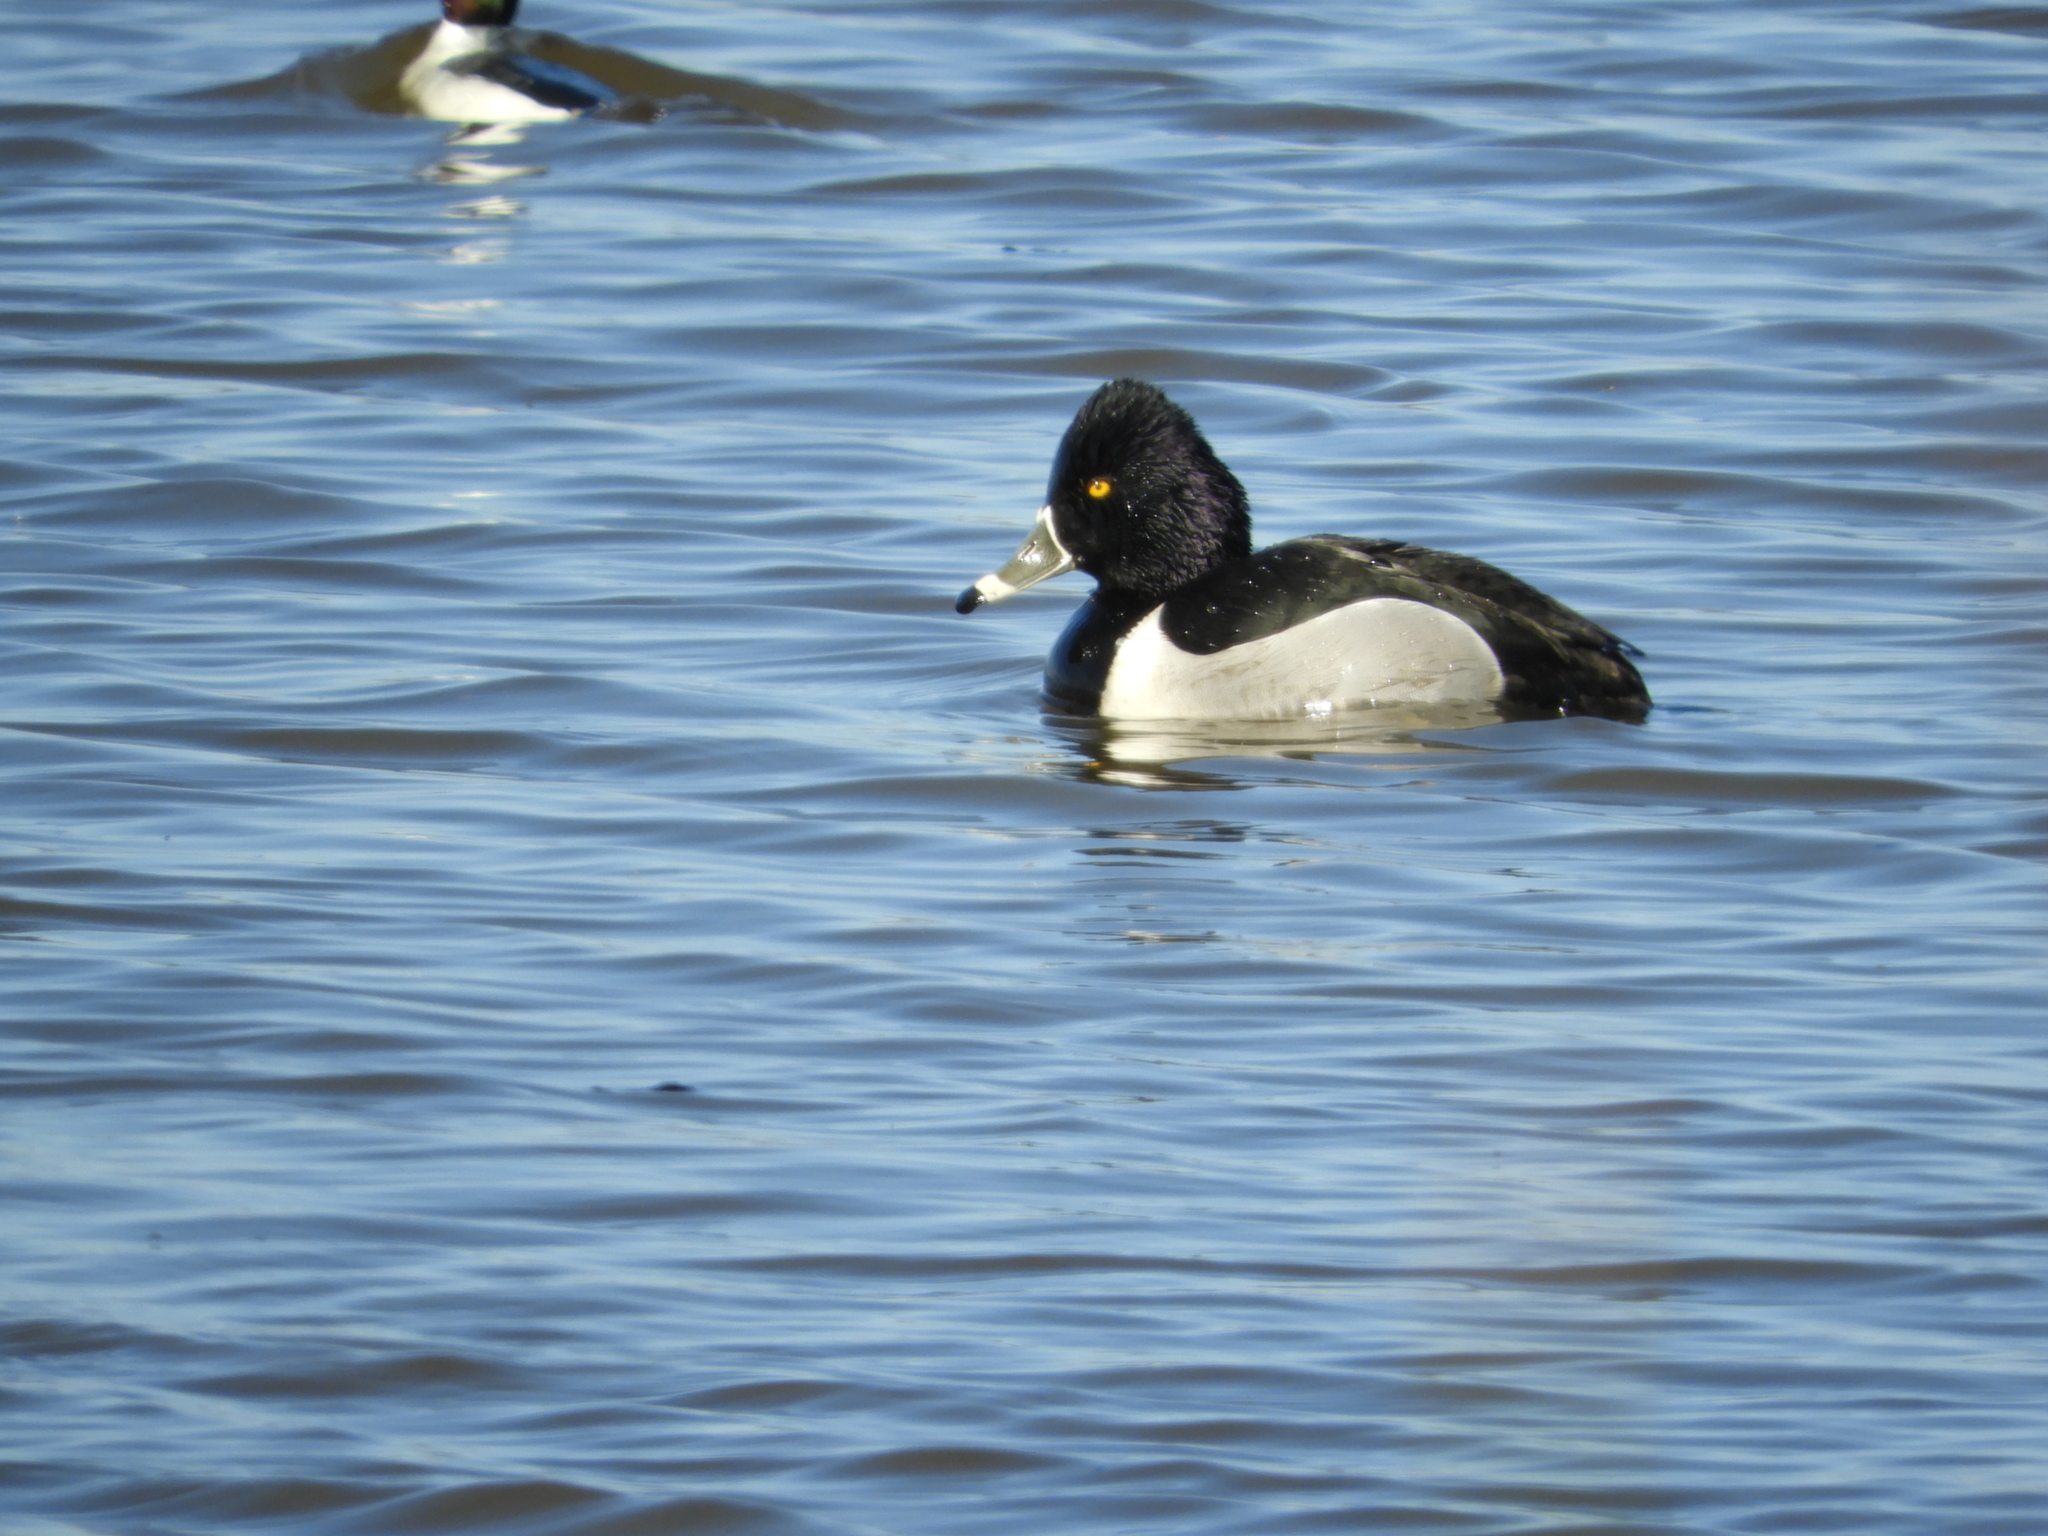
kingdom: Animalia
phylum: Chordata
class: Aves
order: Anseriformes
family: Anatidae
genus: Aythya
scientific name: Aythya collaris
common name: Ring-necked duck
